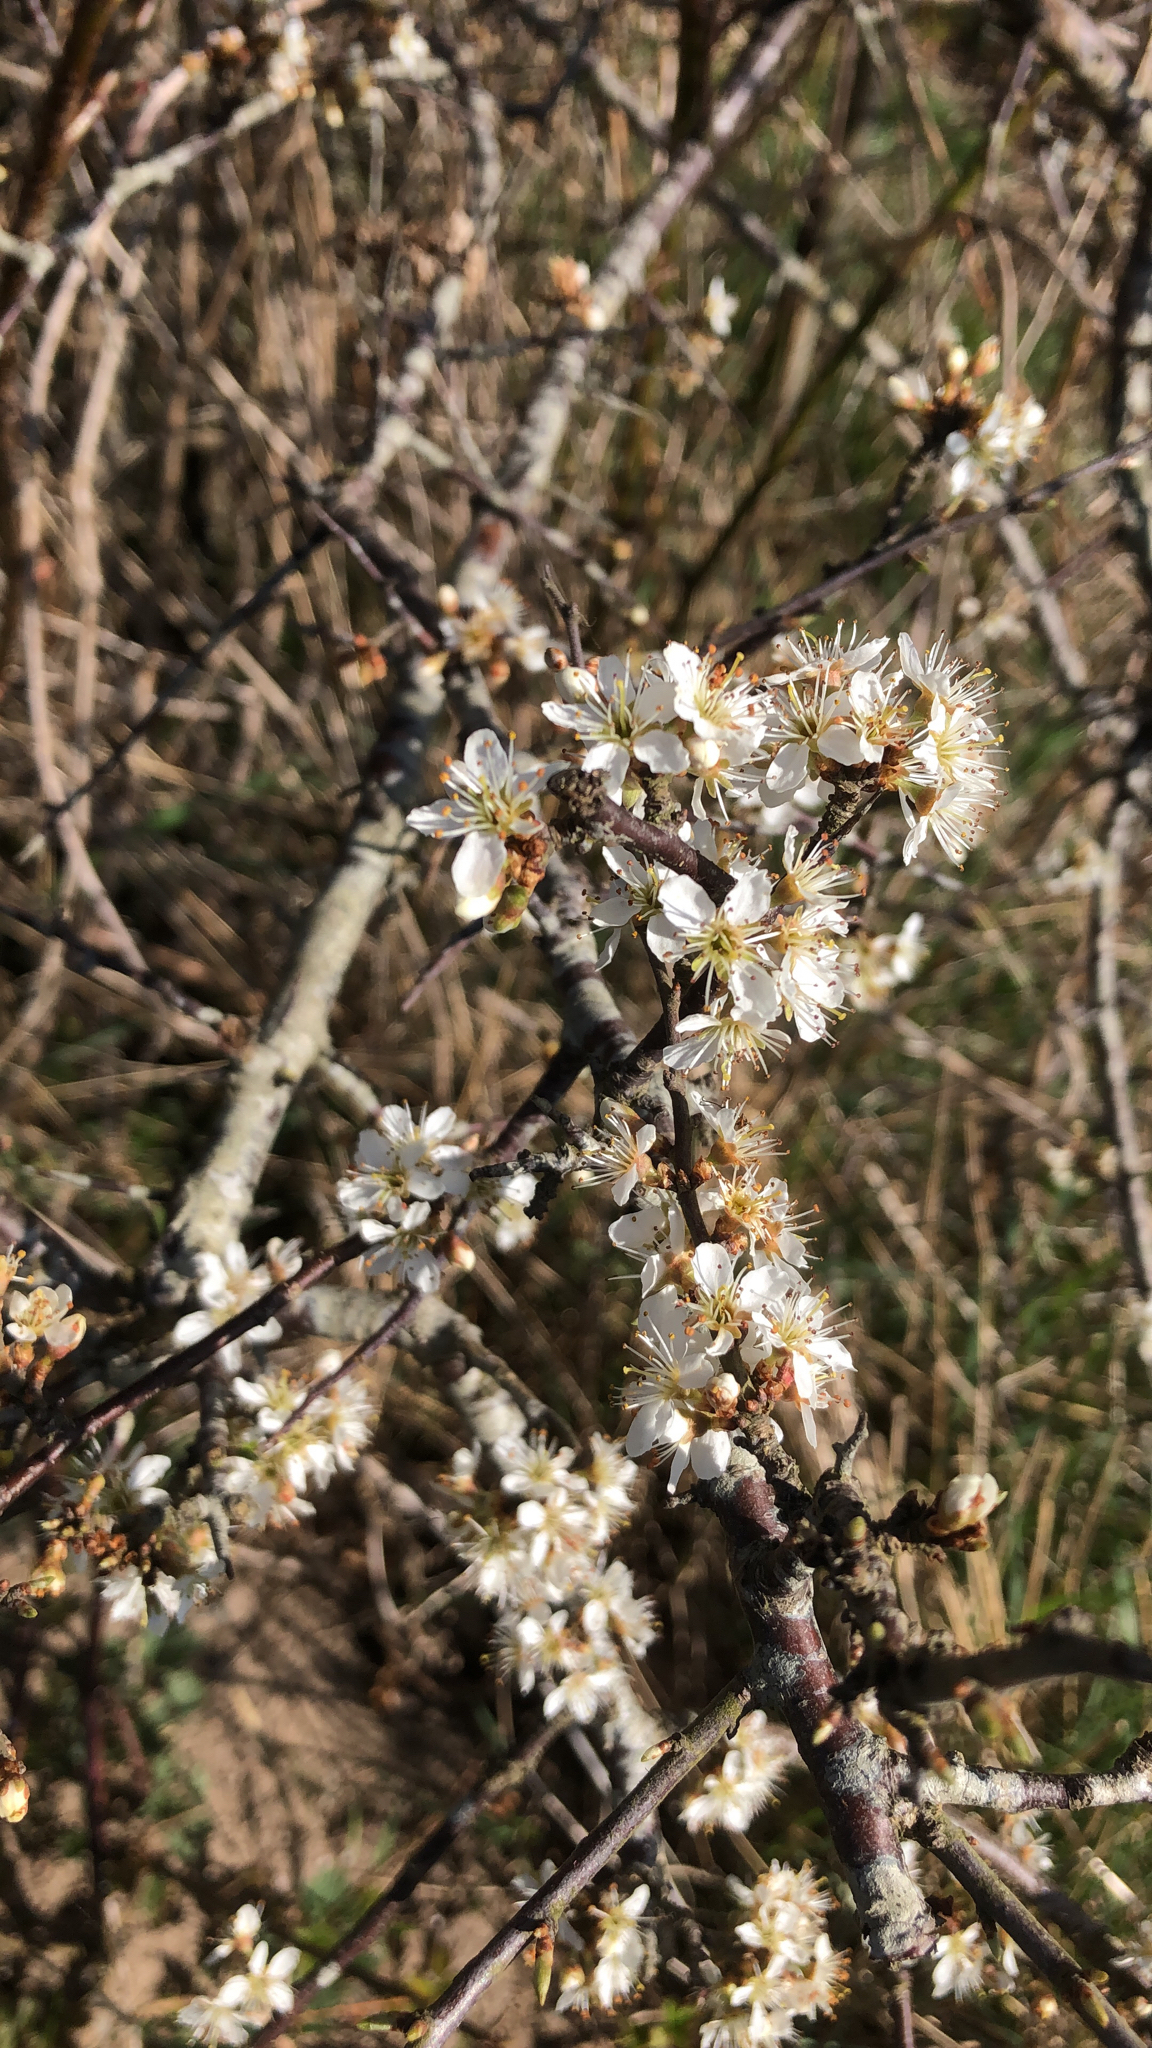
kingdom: Plantae
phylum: Tracheophyta
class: Magnoliopsida
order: Rosales
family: Rosaceae
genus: Prunus
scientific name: Prunus spinosa
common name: Blackthorn
